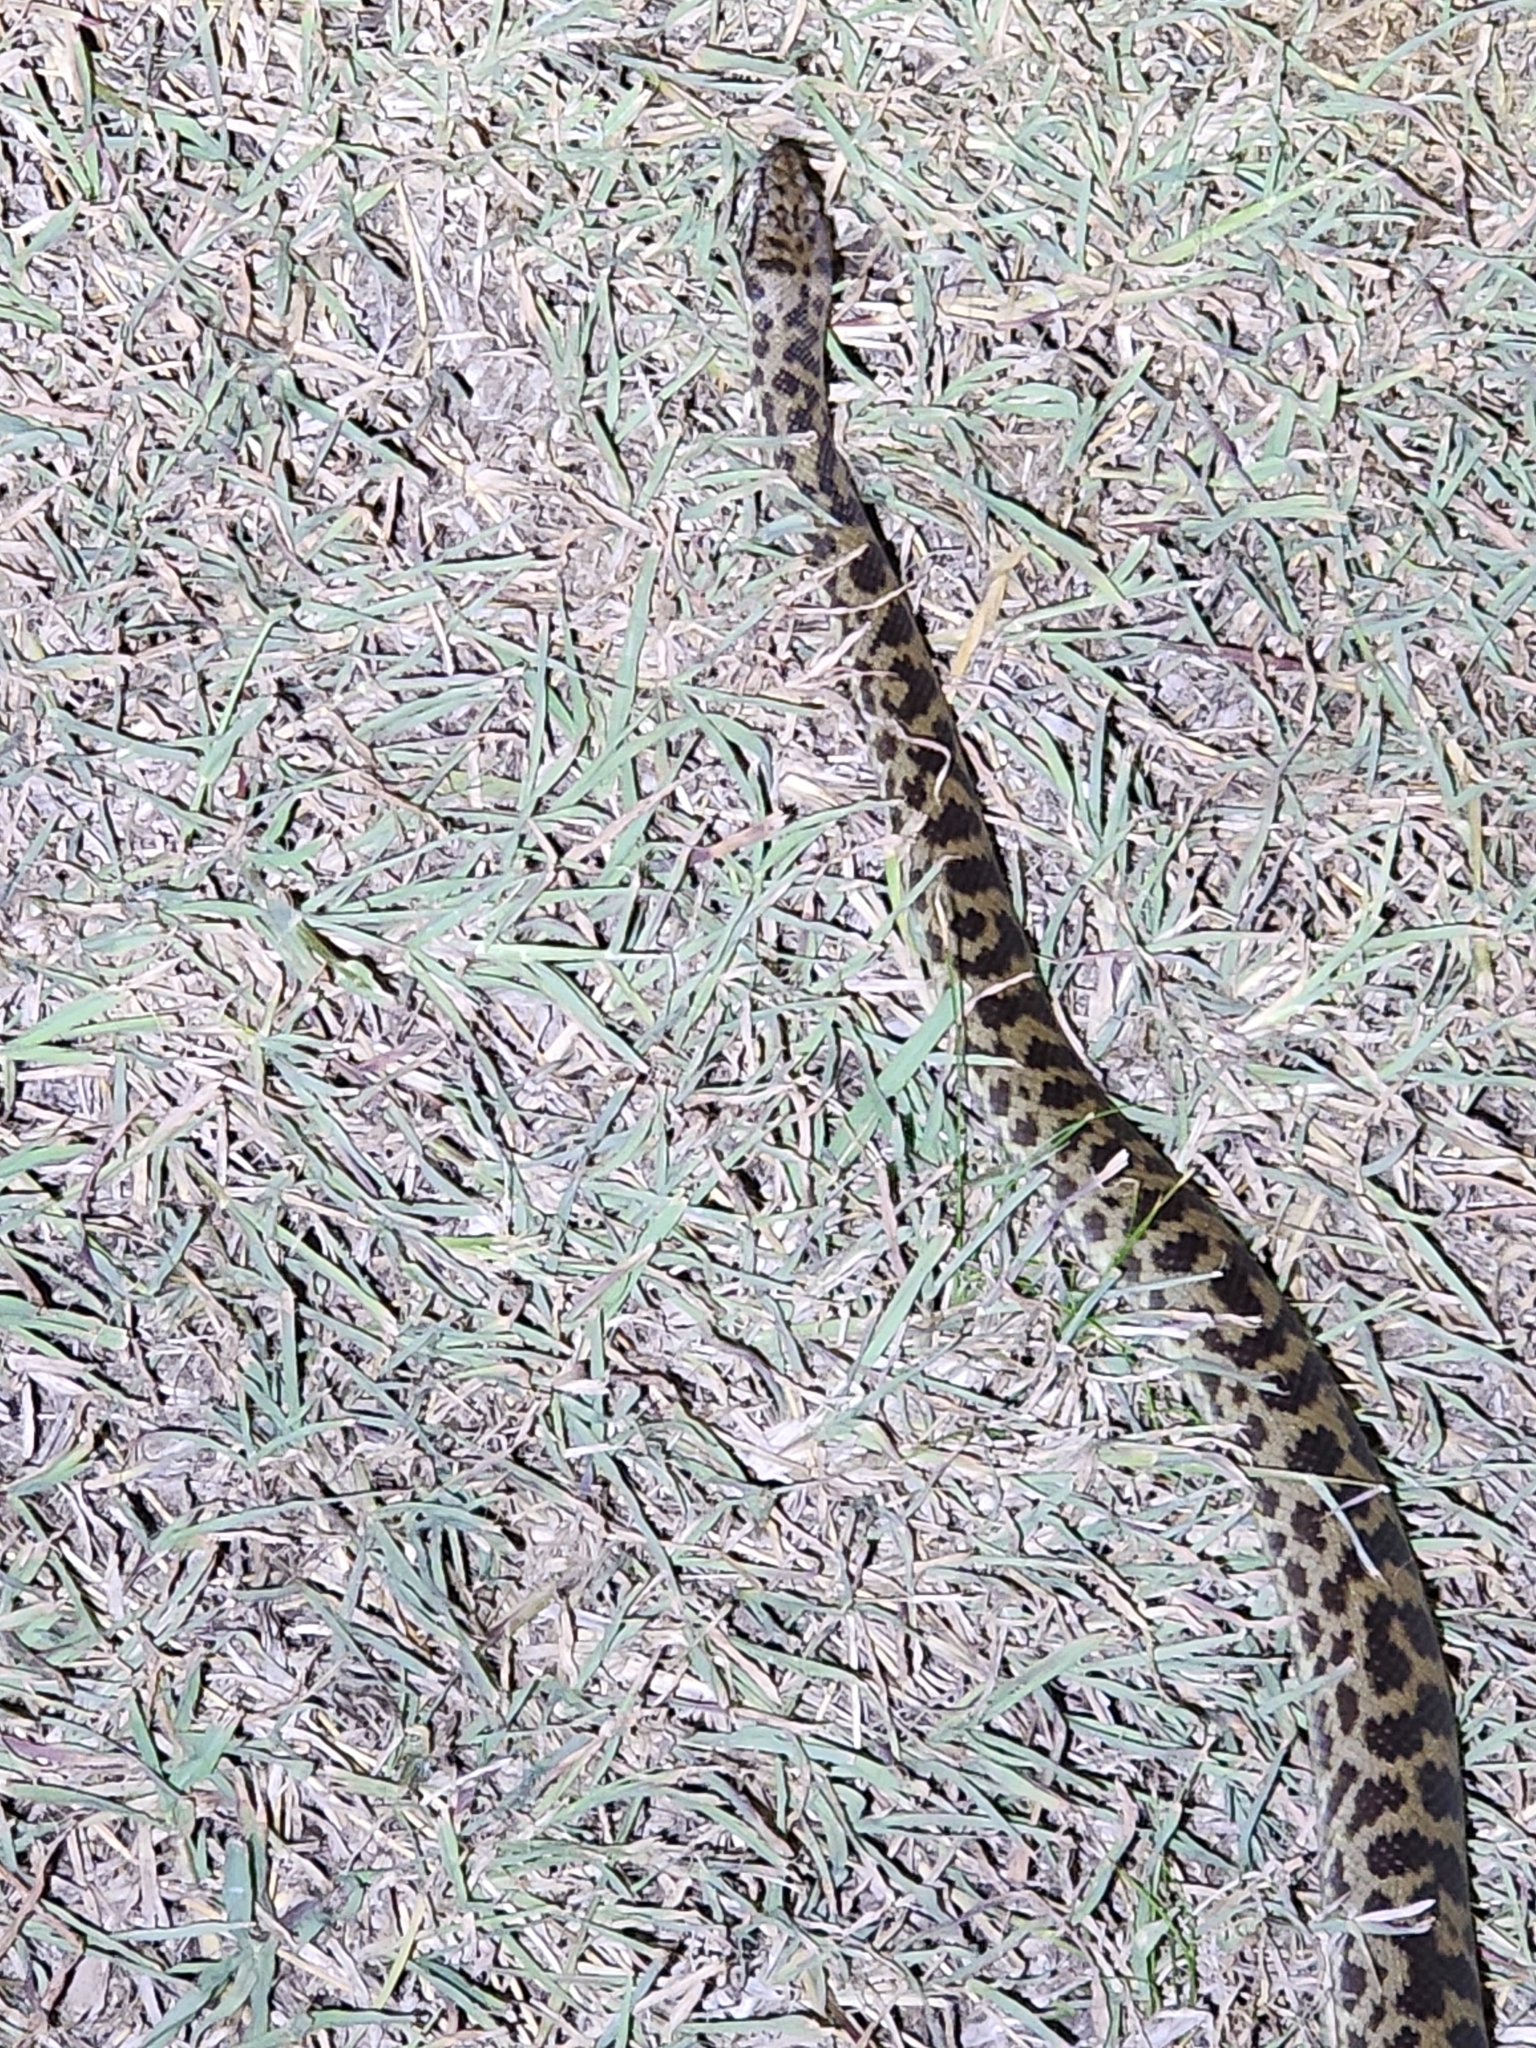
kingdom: Animalia
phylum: Chordata
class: Squamata
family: Pythonidae
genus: Antaresia
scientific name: Antaresia maculosa
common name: Eastern childrens python
